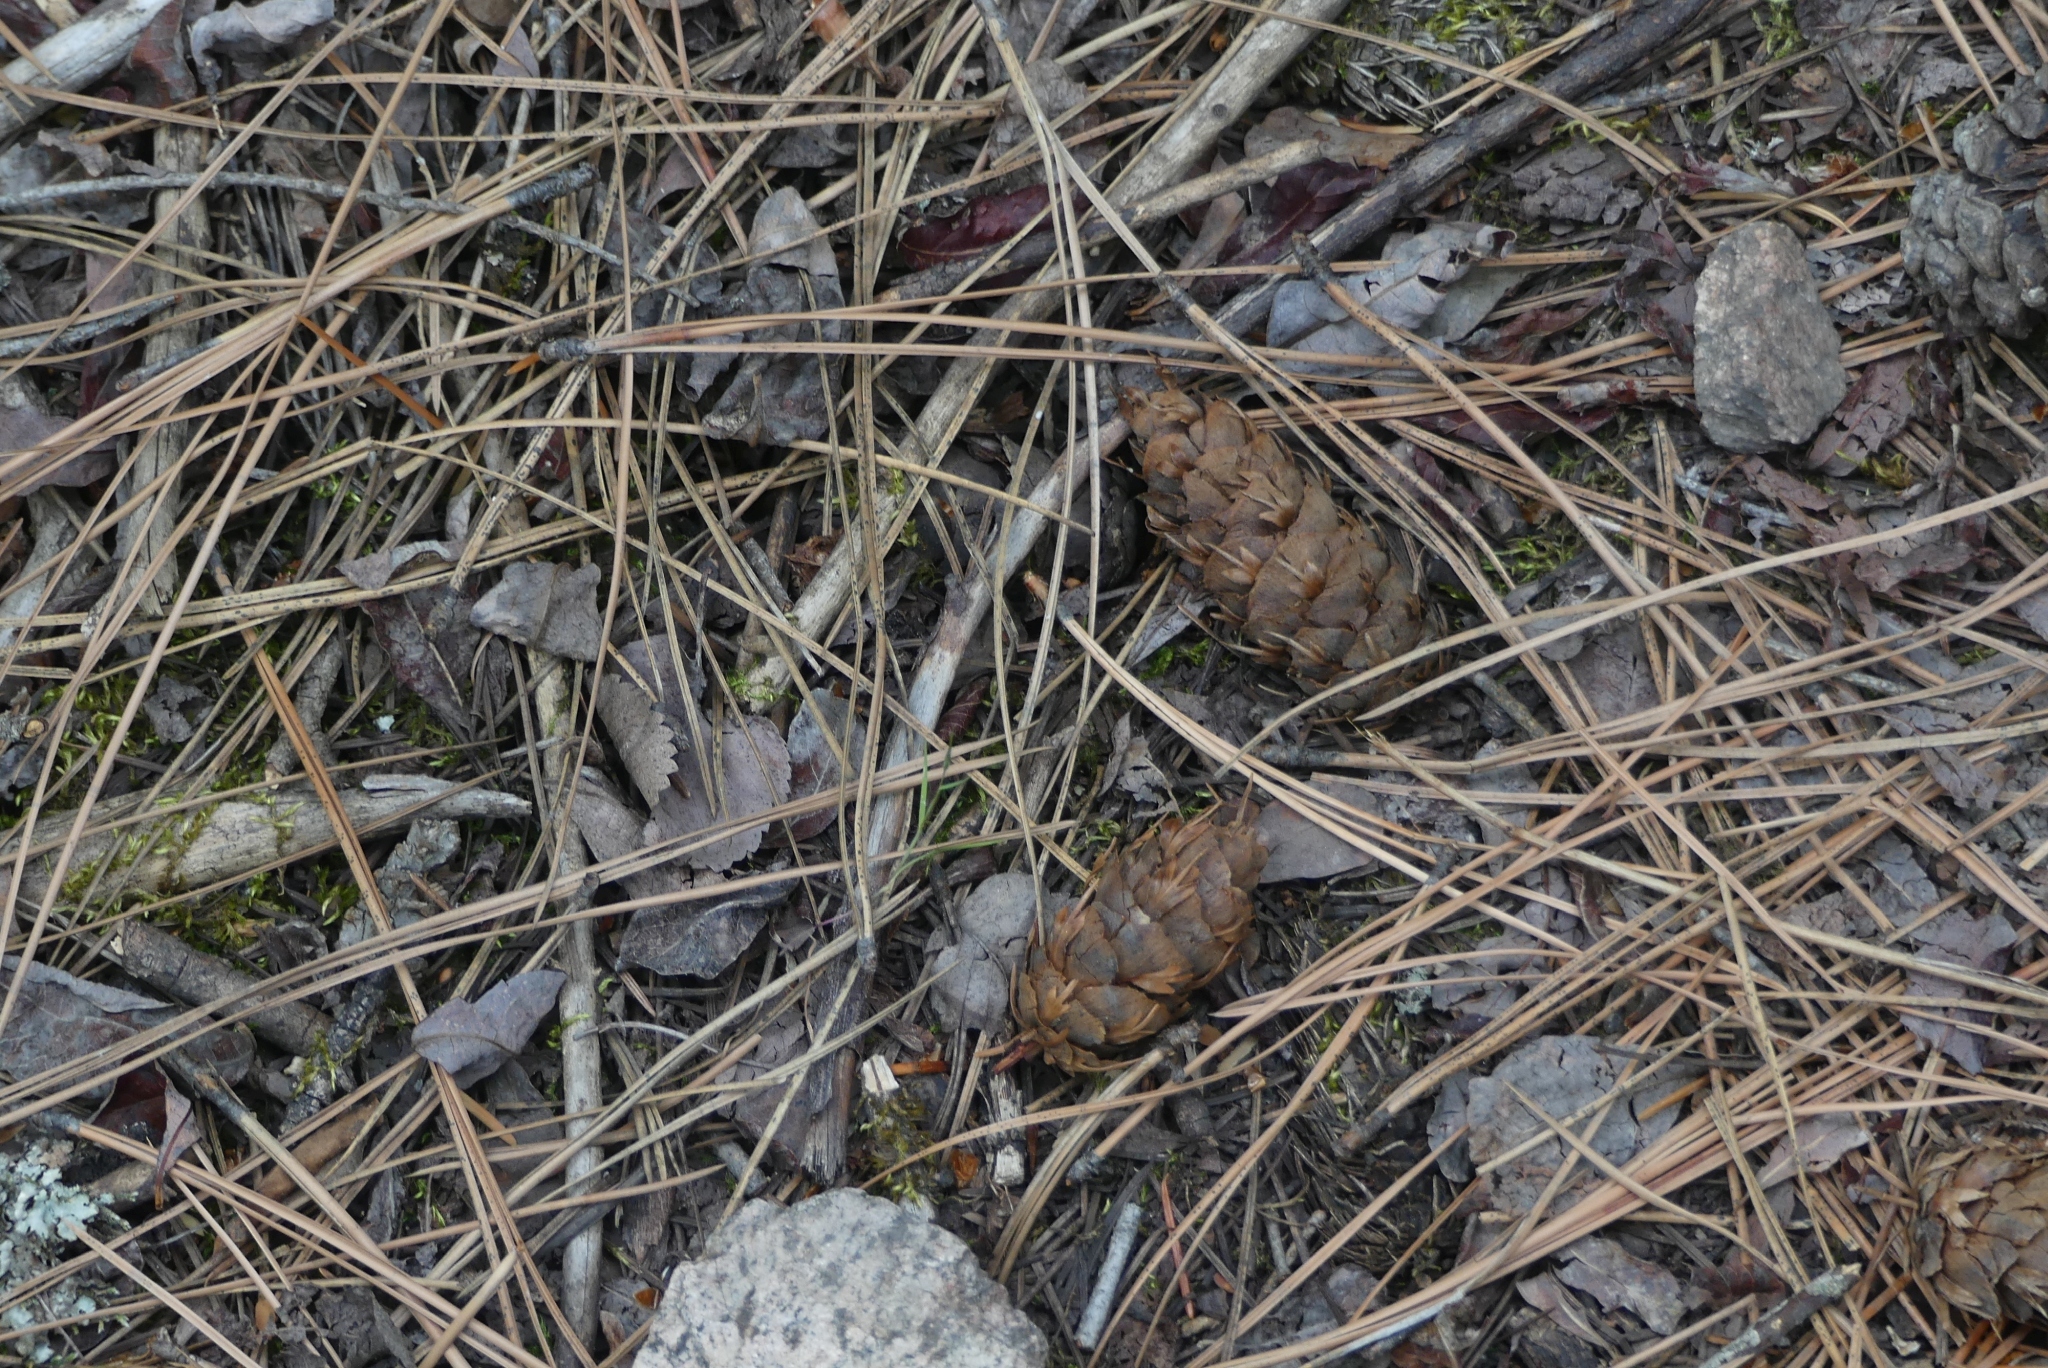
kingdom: Plantae
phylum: Tracheophyta
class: Pinopsida
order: Pinales
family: Pinaceae
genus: Pseudotsuga
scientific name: Pseudotsuga menziesii
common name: Douglas fir
